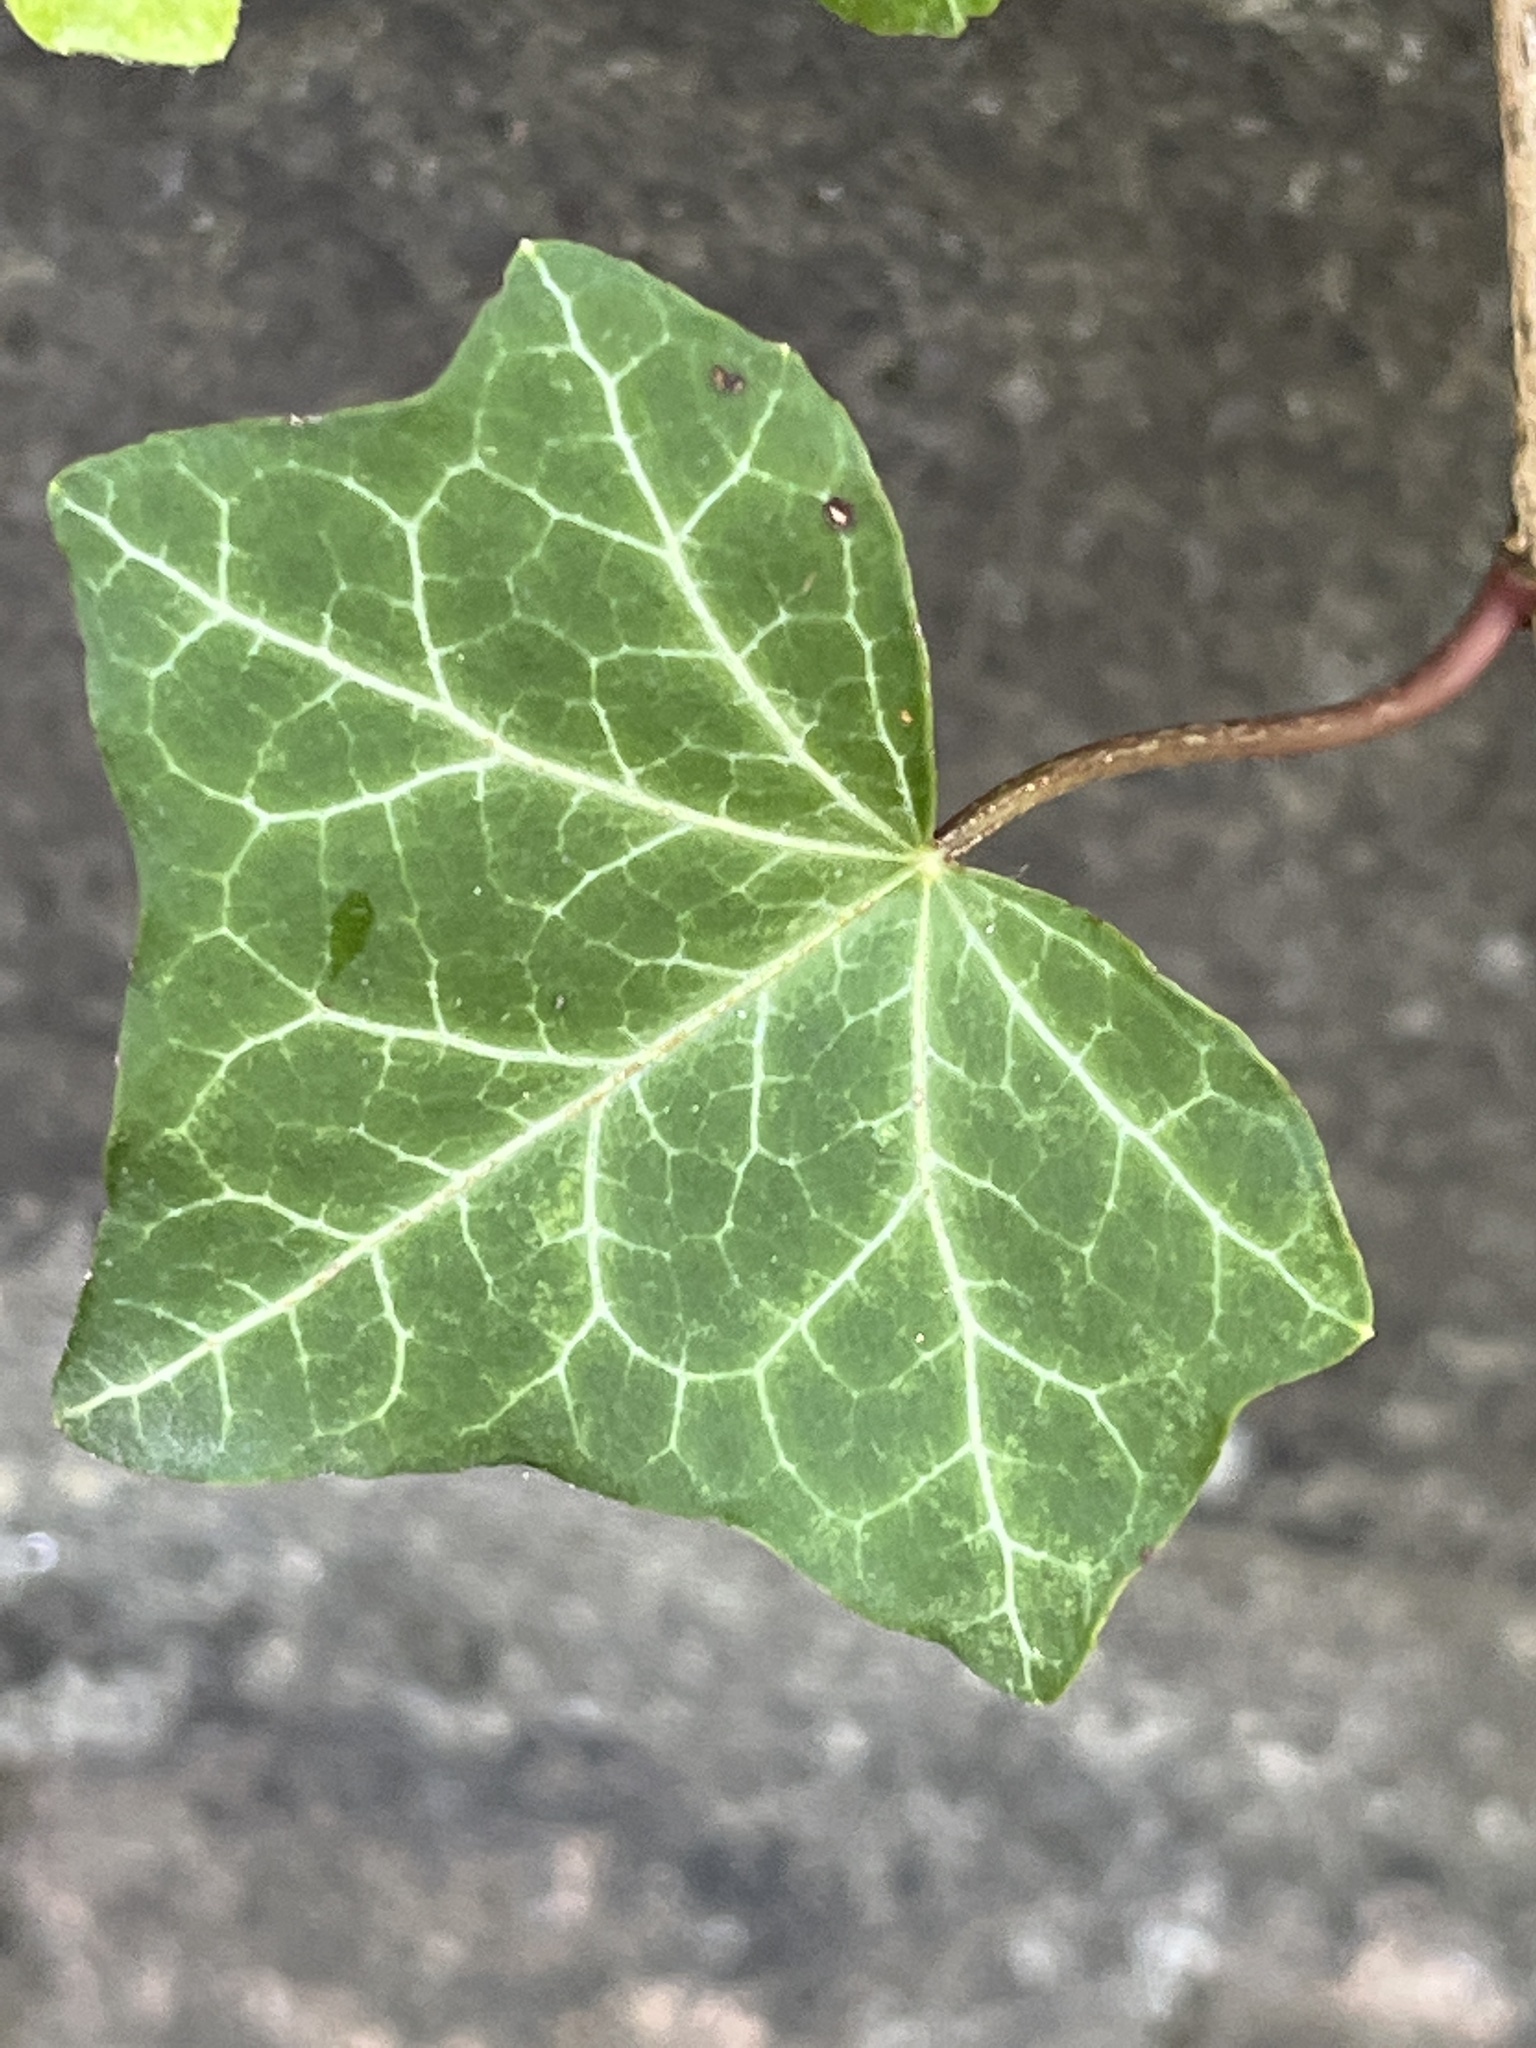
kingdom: Plantae
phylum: Tracheophyta
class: Magnoliopsida
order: Apiales
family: Araliaceae
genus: Hedera
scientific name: Hedera helix
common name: Ivy
